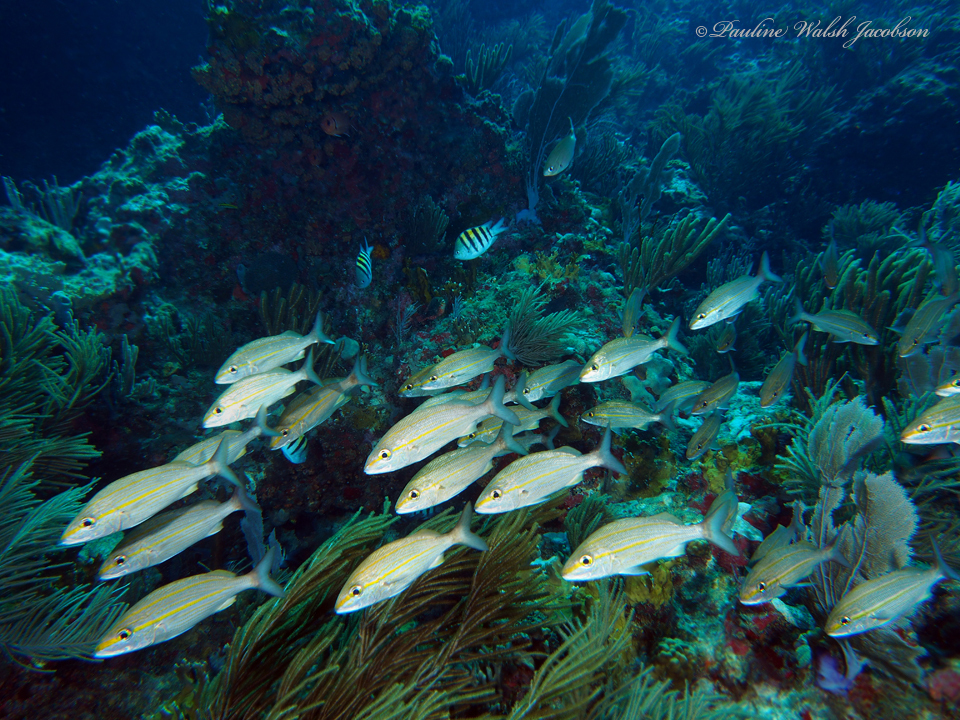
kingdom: Animalia
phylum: Chordata
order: Perciformes
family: Haemulidae
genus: Haemulon
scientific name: Haemulon aurolineatum
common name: Tomtate
